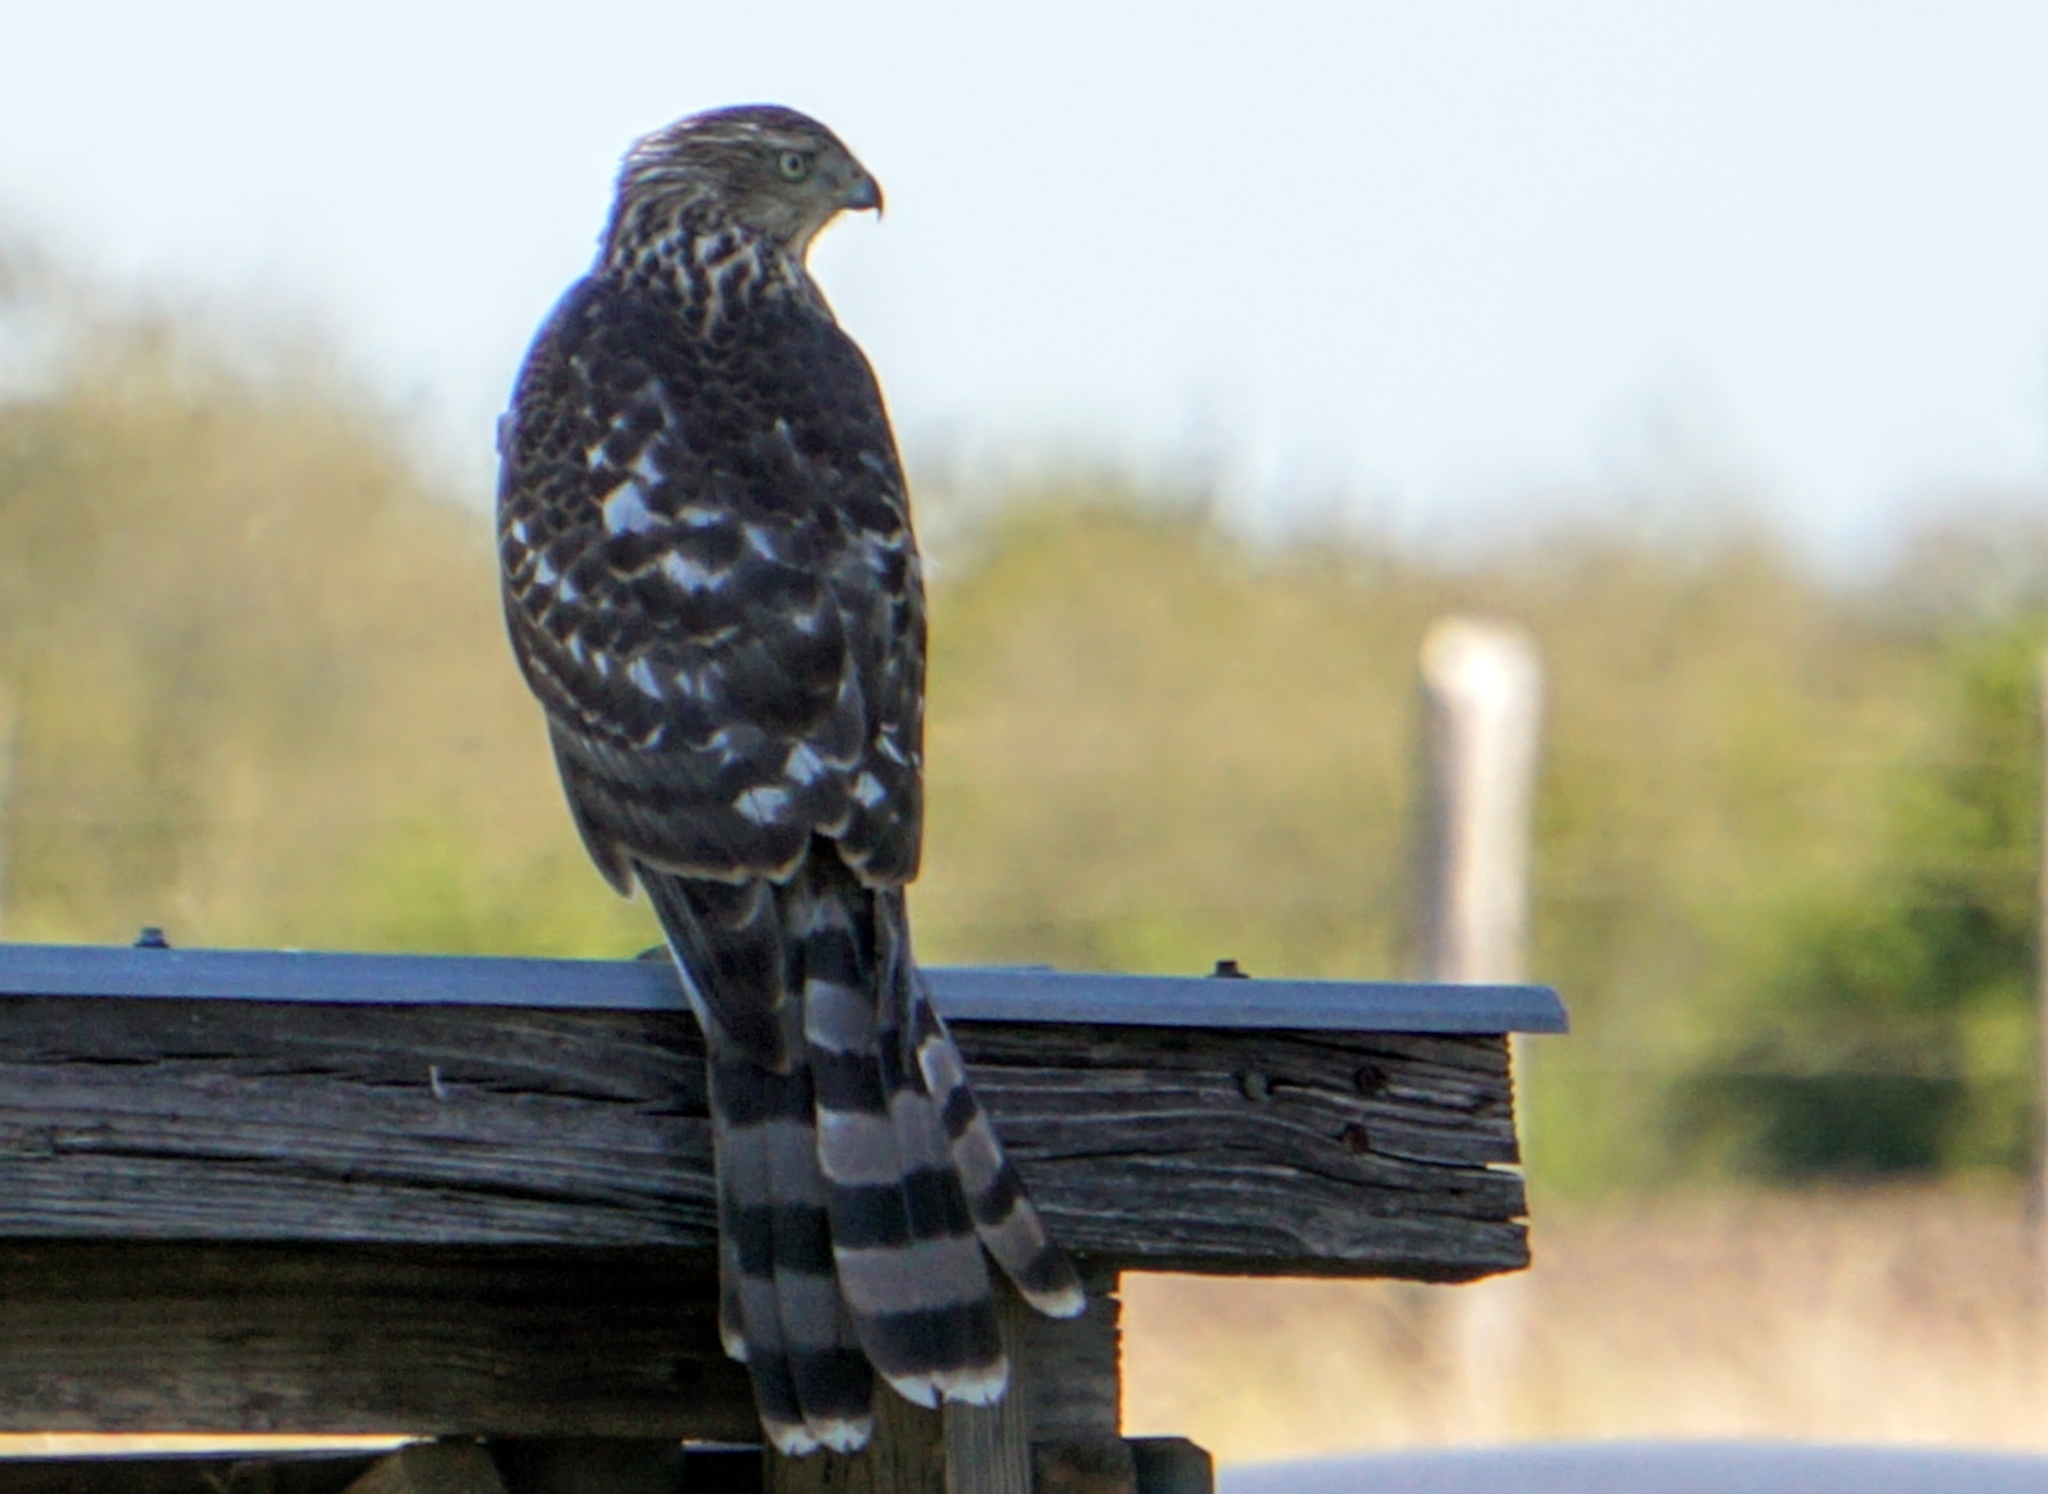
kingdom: Animalia
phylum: Chordata
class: Aves
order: Accipitriformes
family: Accipitridae
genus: Accipiter
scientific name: Accipiter cooperii
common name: Cooper's hawk
